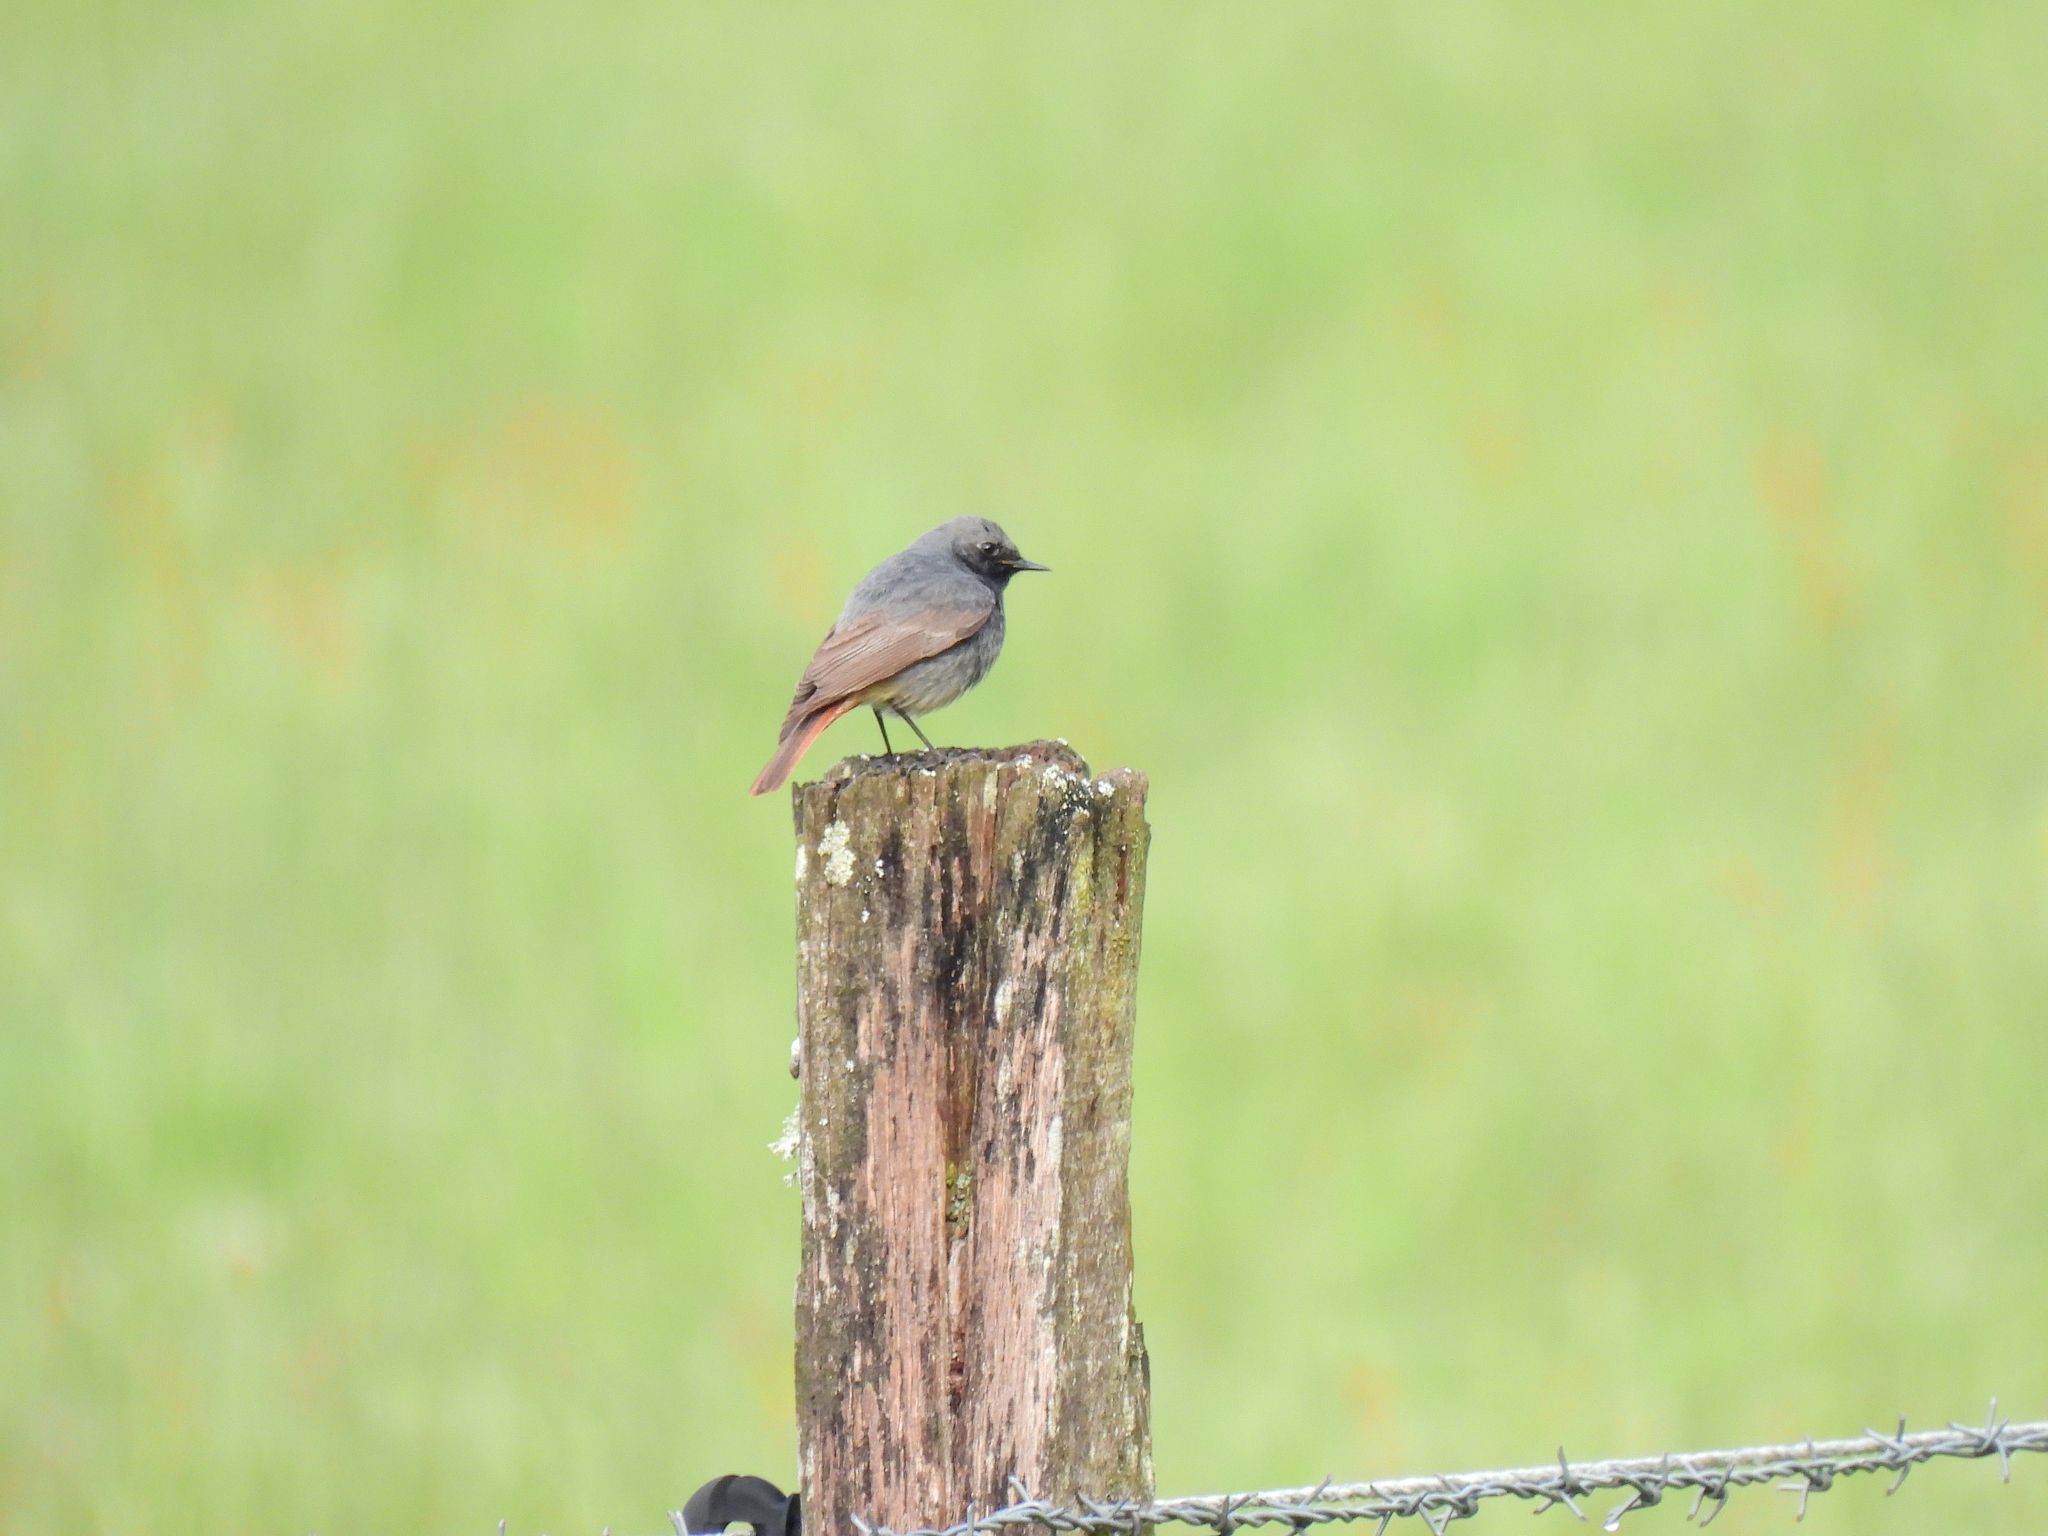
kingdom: Animalia
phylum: Chordata
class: Aves
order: Passeriformes
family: Muscicapidae
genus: Phoenicurus
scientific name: Phoenicurus ochruros
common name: Black redstart
